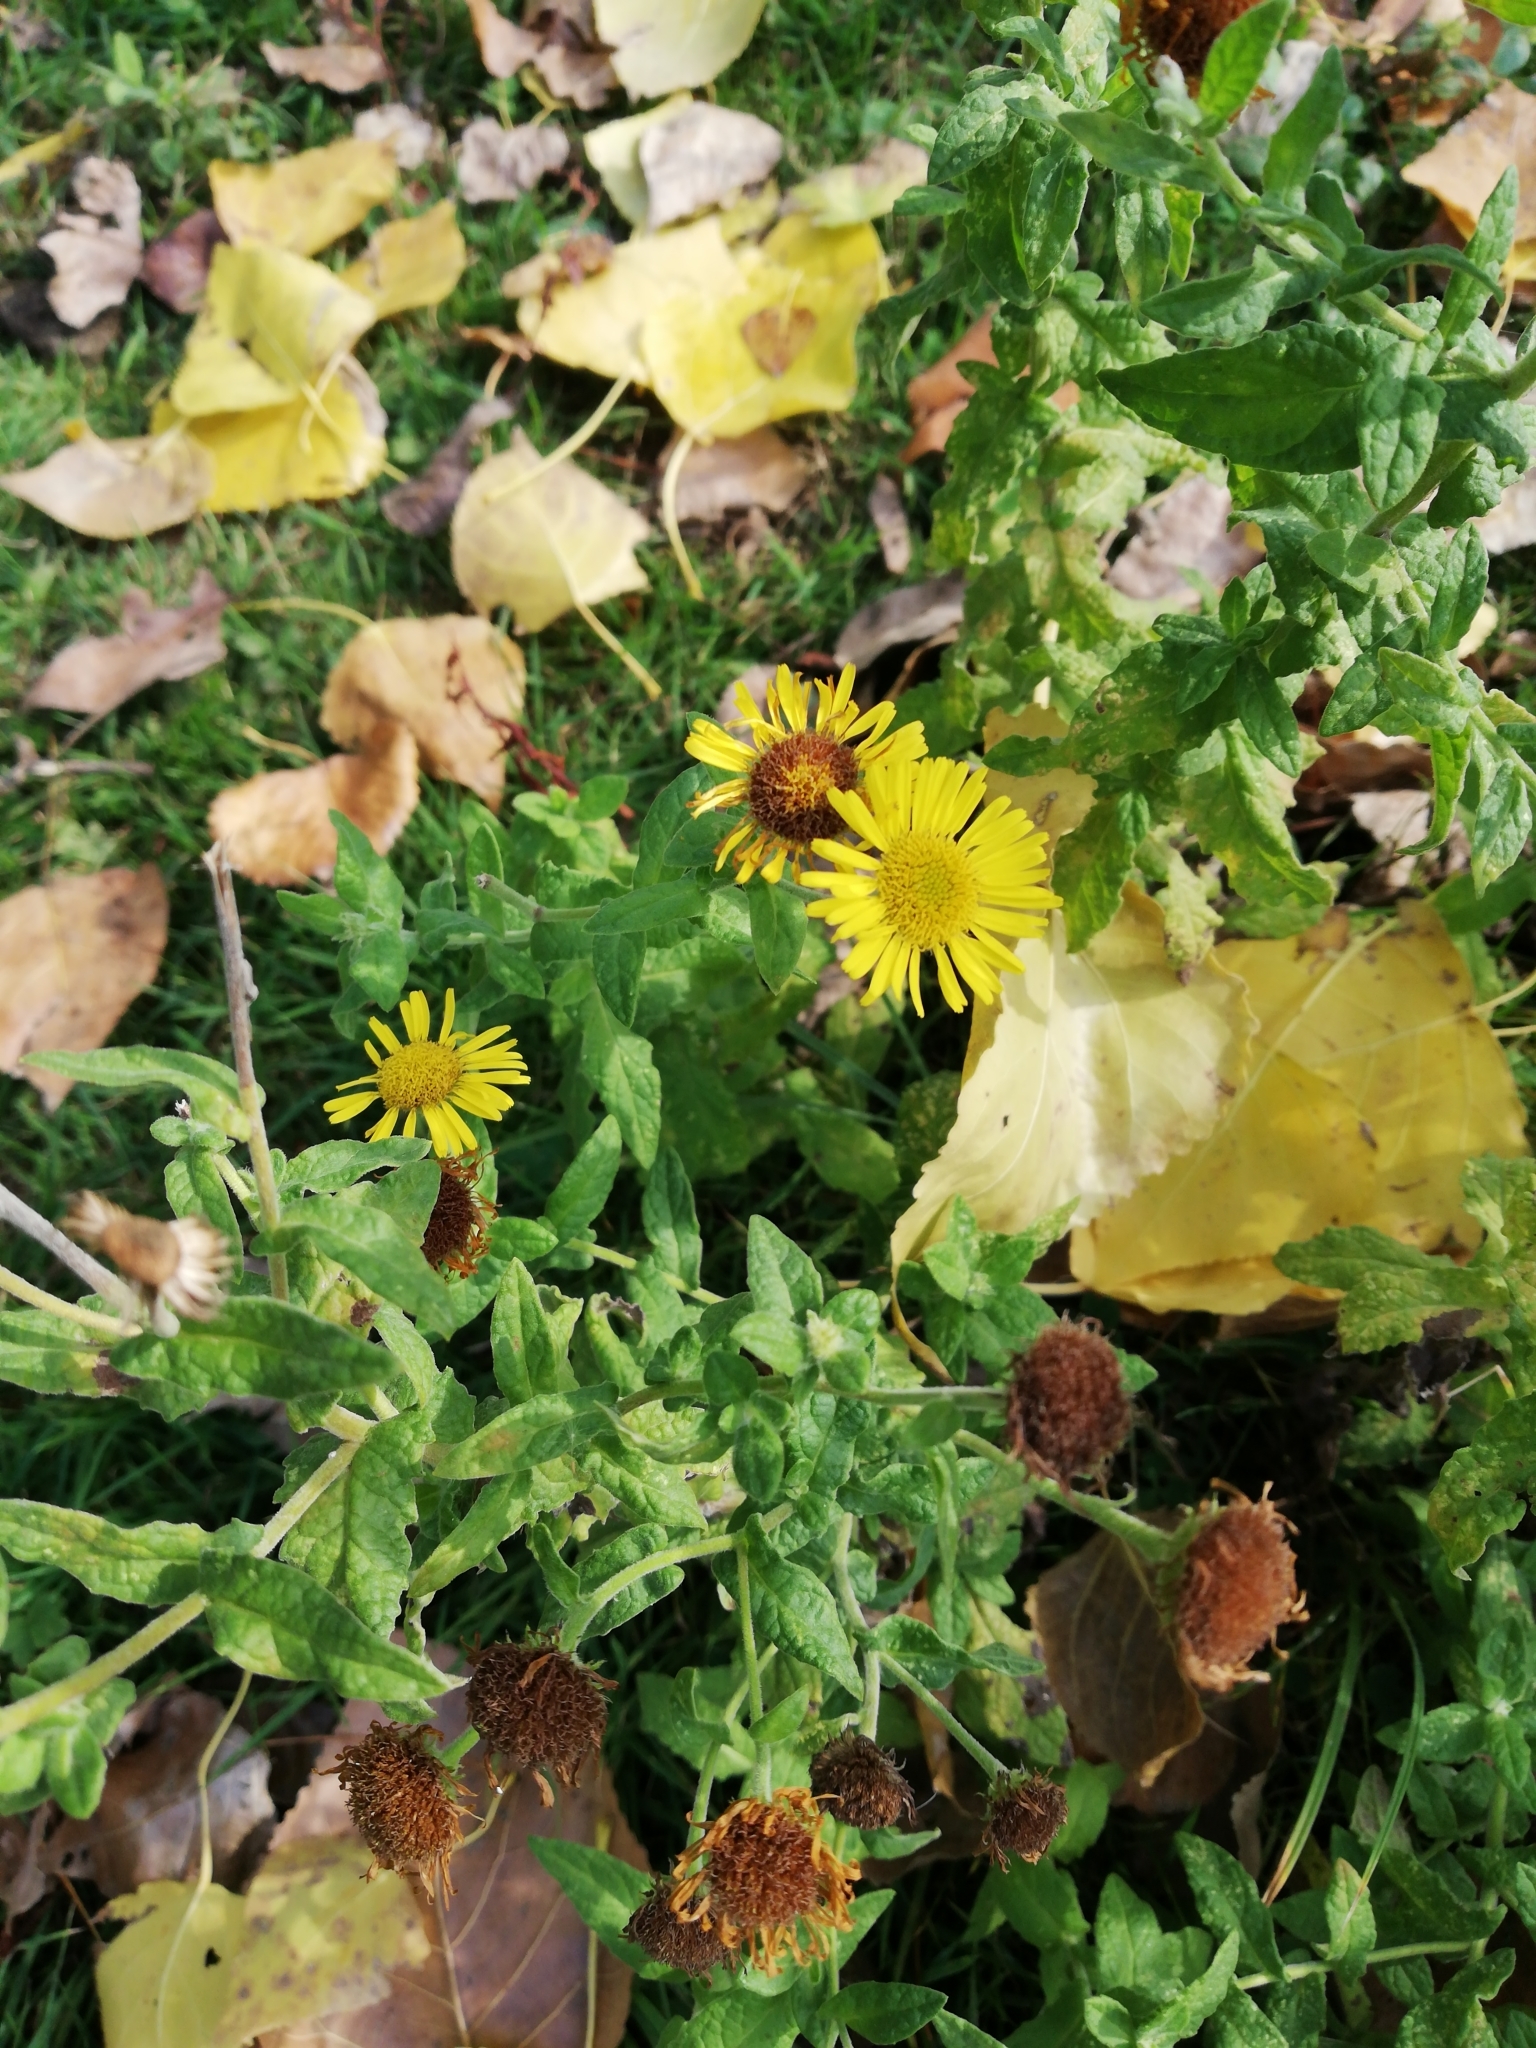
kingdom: Plantae
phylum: Tracheophyta
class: Magnoliopsida
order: Asterales
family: Asteraceae
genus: Pulicaria
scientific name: Pulicaria dysenterica
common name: Common fleabane
